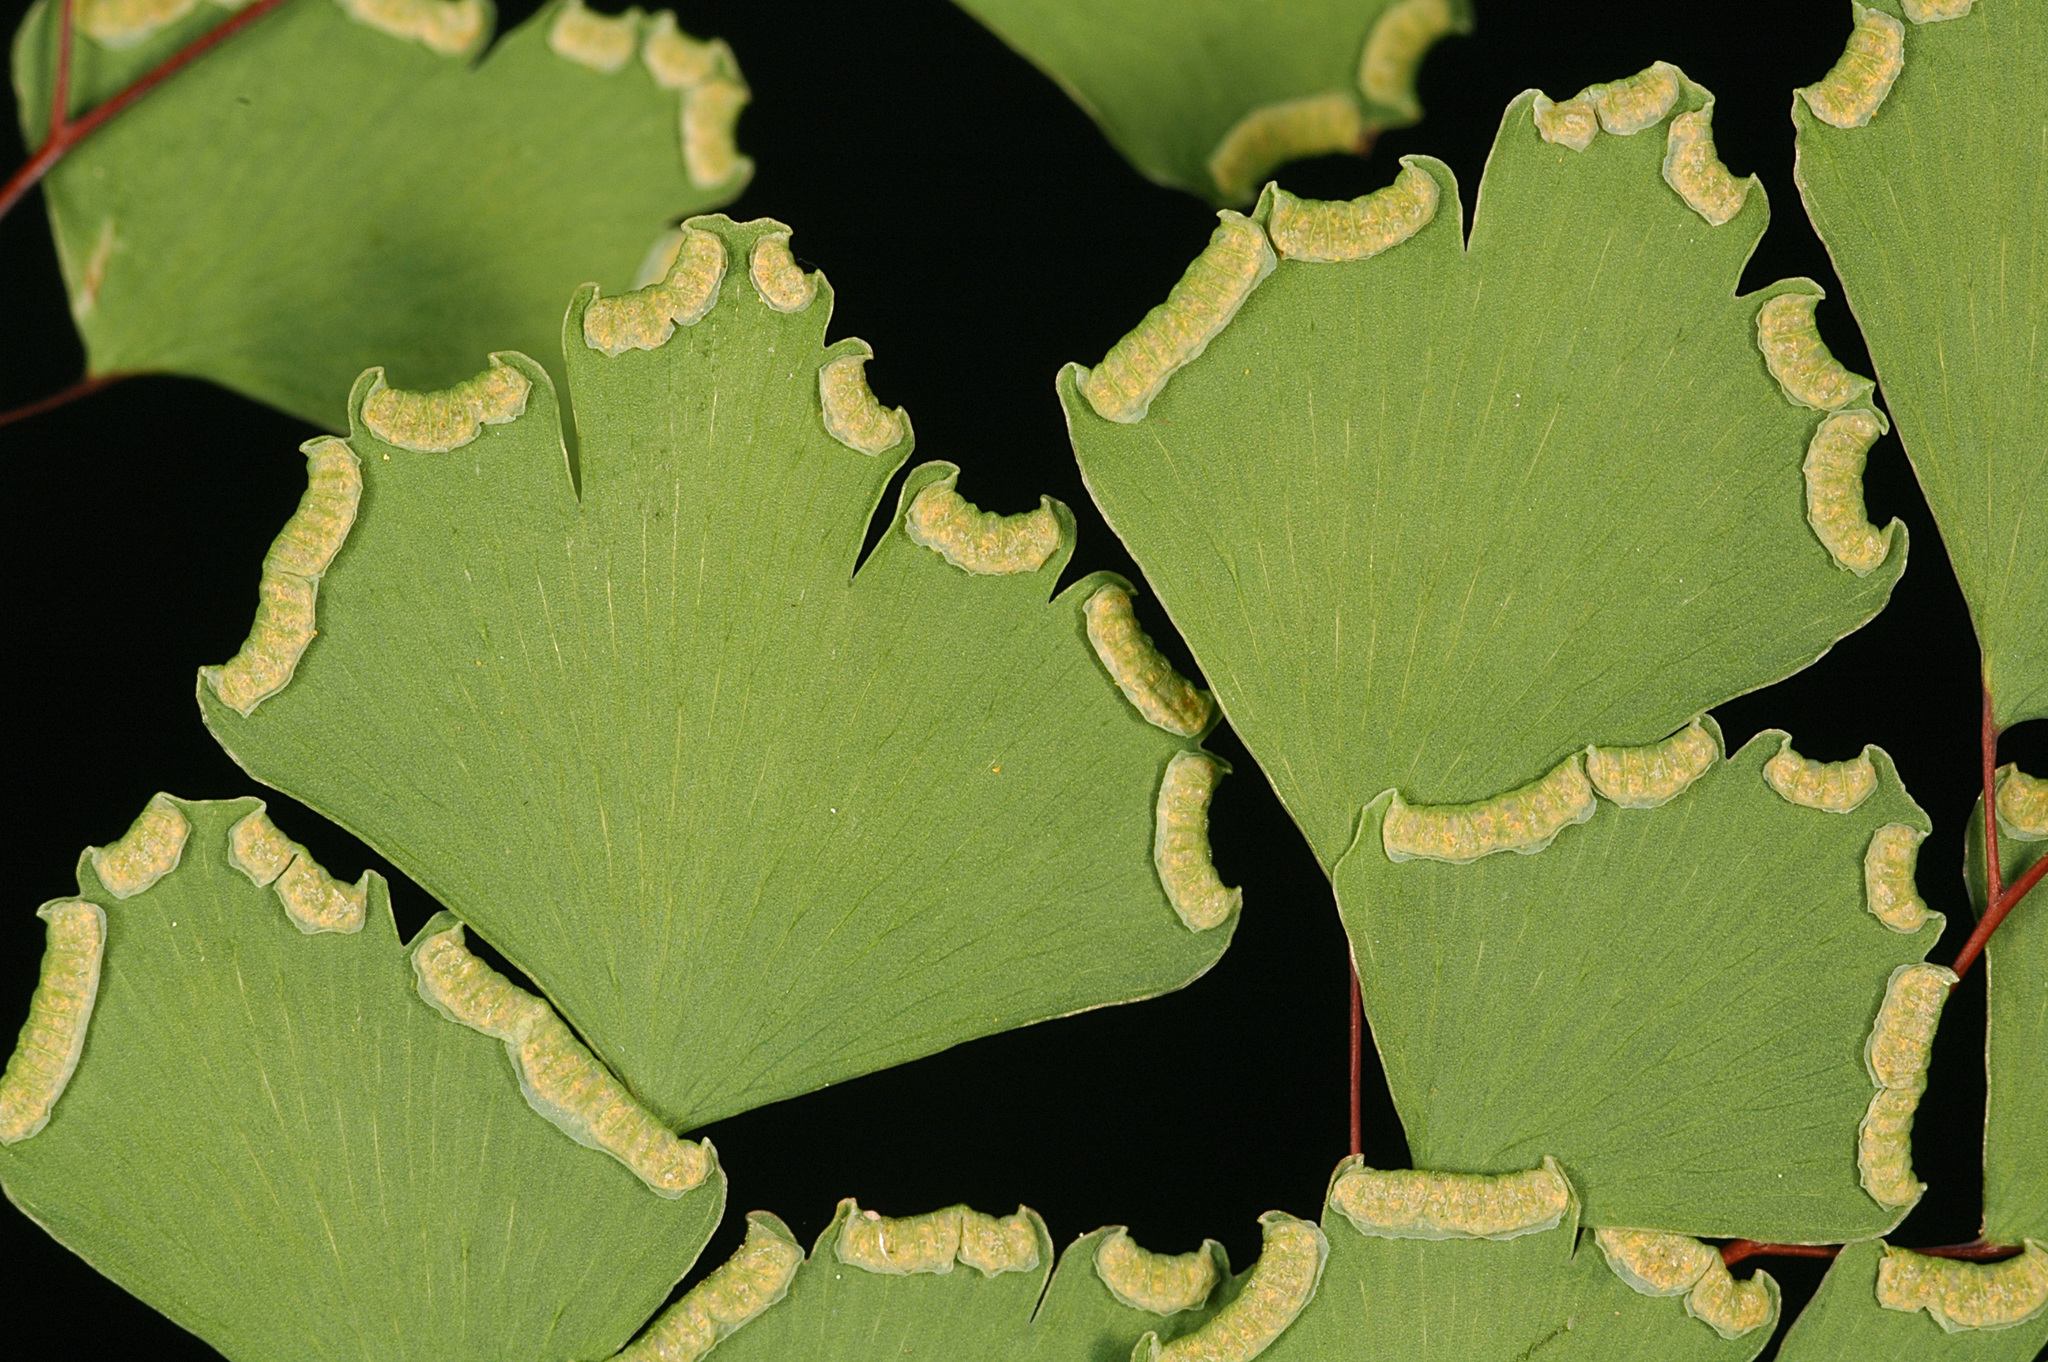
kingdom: Plantae
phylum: Tracheophyta
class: Polypodiopsida
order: Polypodiales
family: Pteridaceae
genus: Adiantum
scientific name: Adiantum shastense
